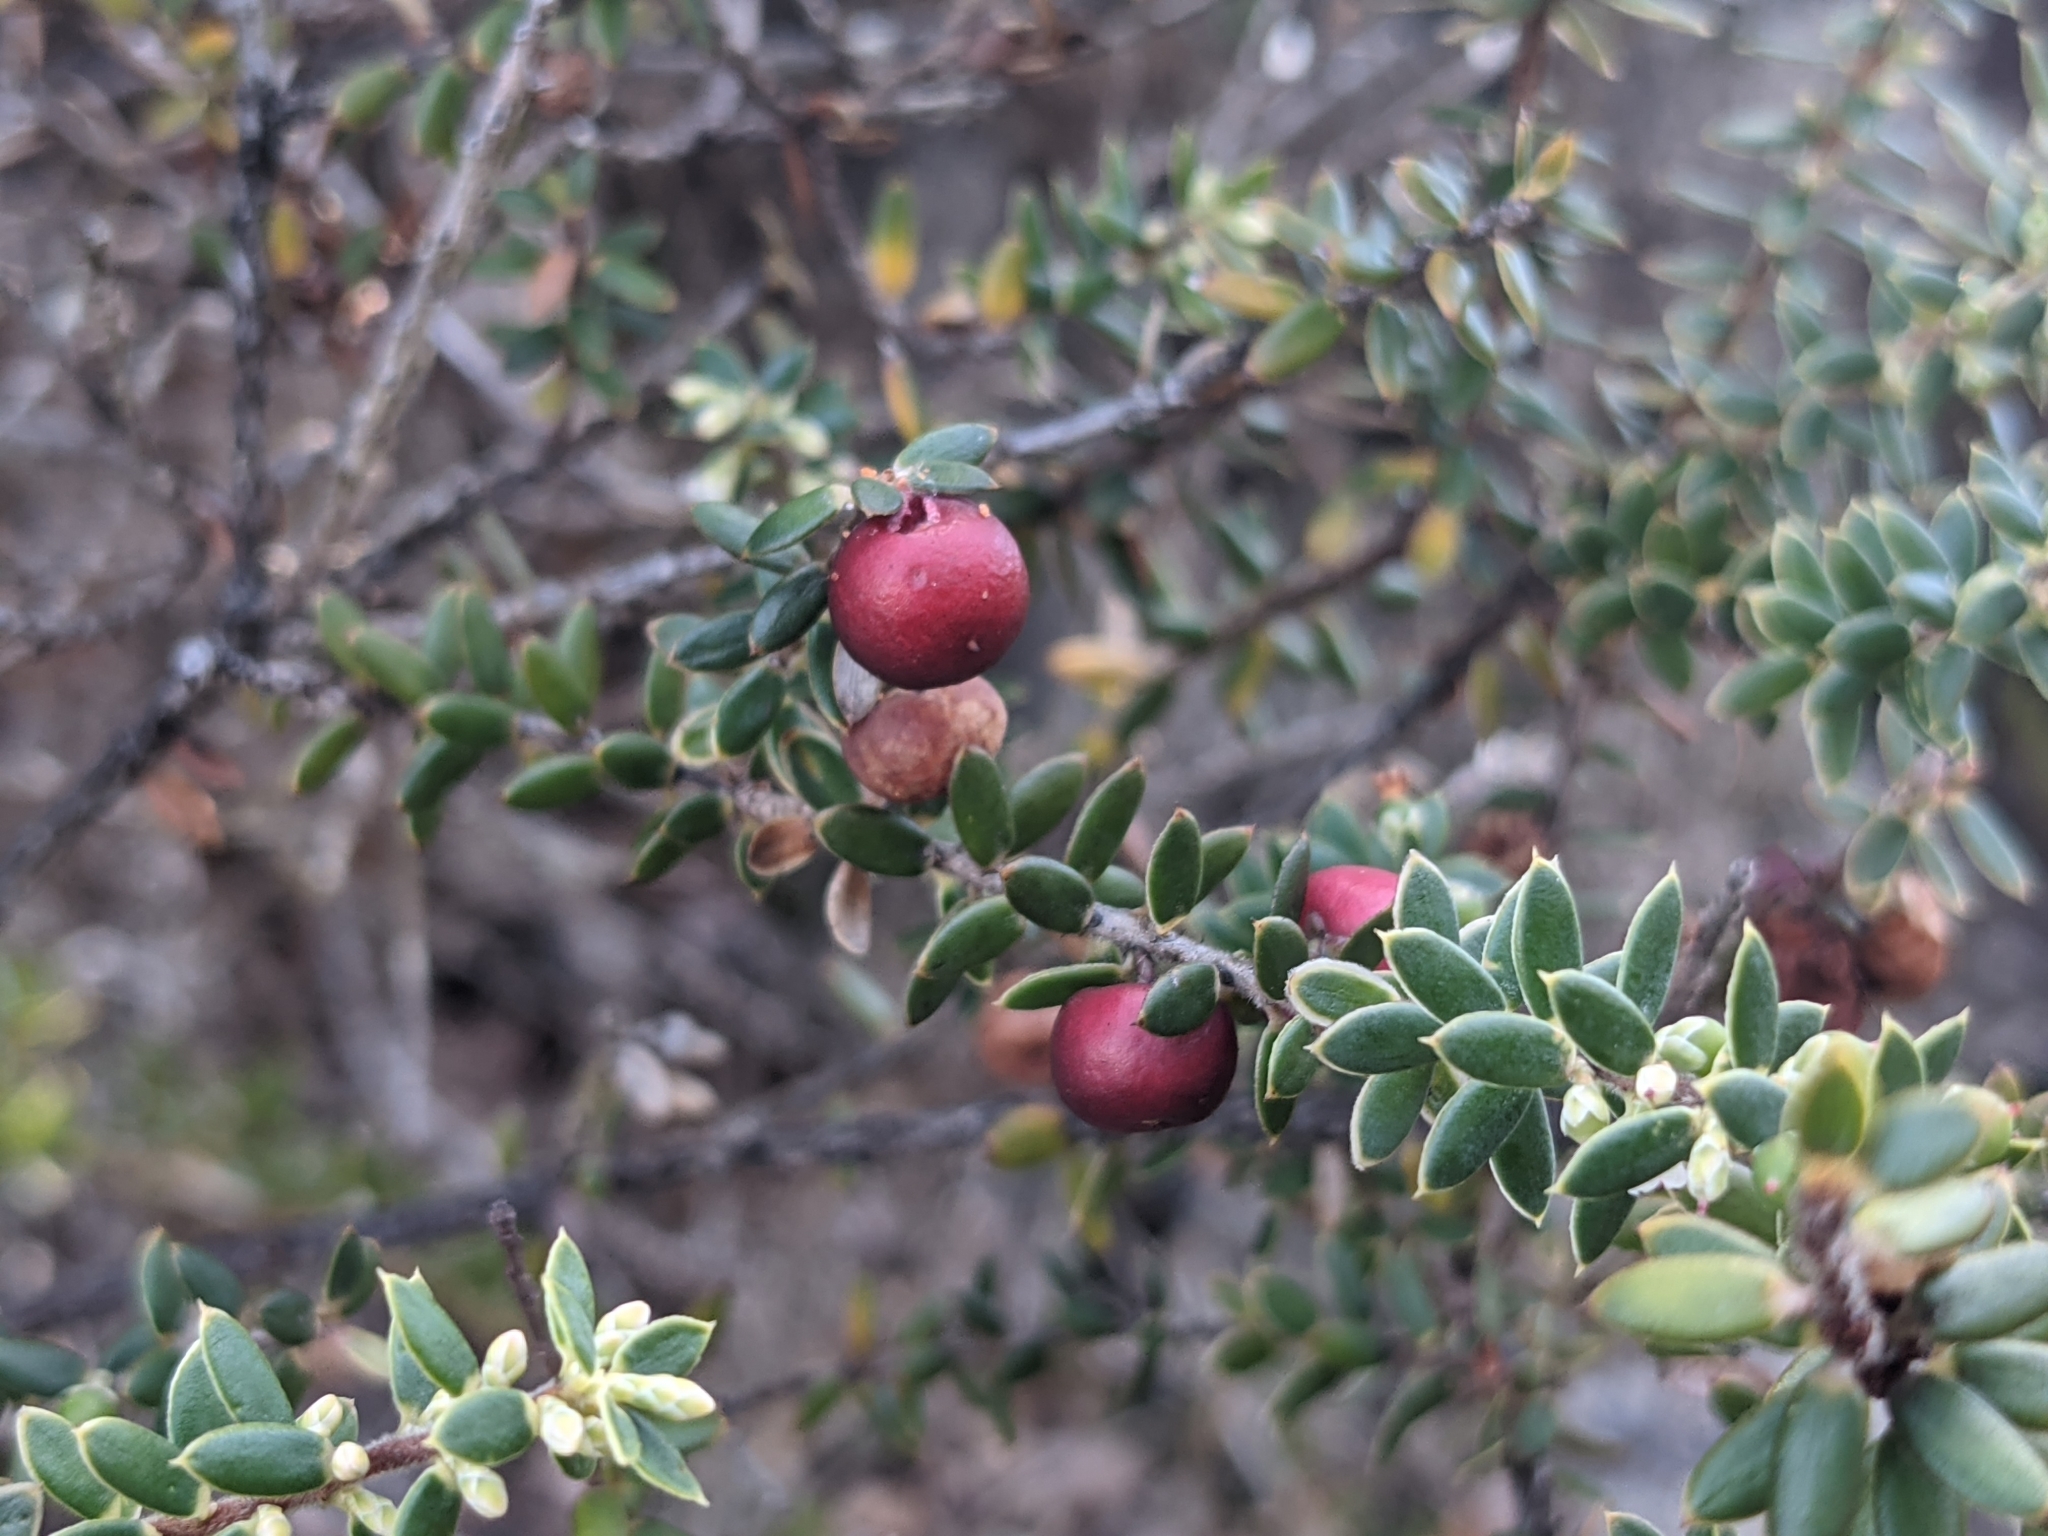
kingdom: Plantae
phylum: Tracheophyta
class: Magnoliopsida
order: Ericales
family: Ericaceae
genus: Leptecophylla
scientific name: Leptecophylla tameiameiae
